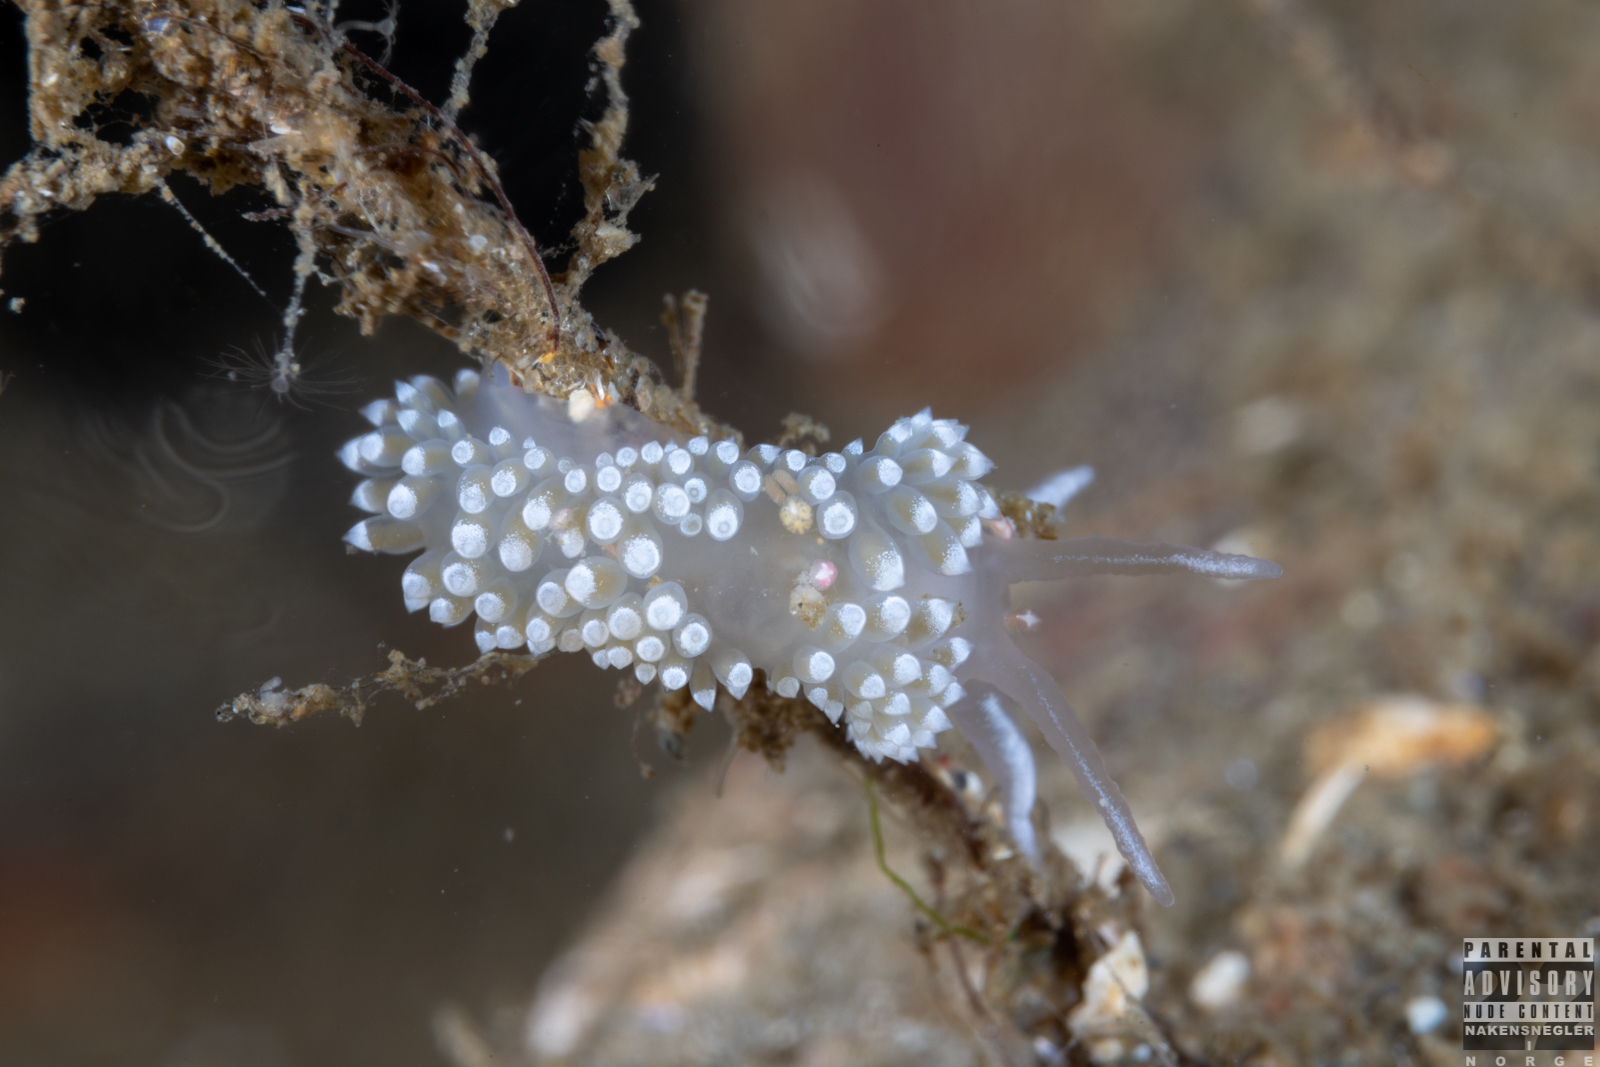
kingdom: Animalia
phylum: Mollusca
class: Gastropoda
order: Nudibranchia
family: Coryphellidae
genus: Coryphella
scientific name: Coryphella verrucosa
